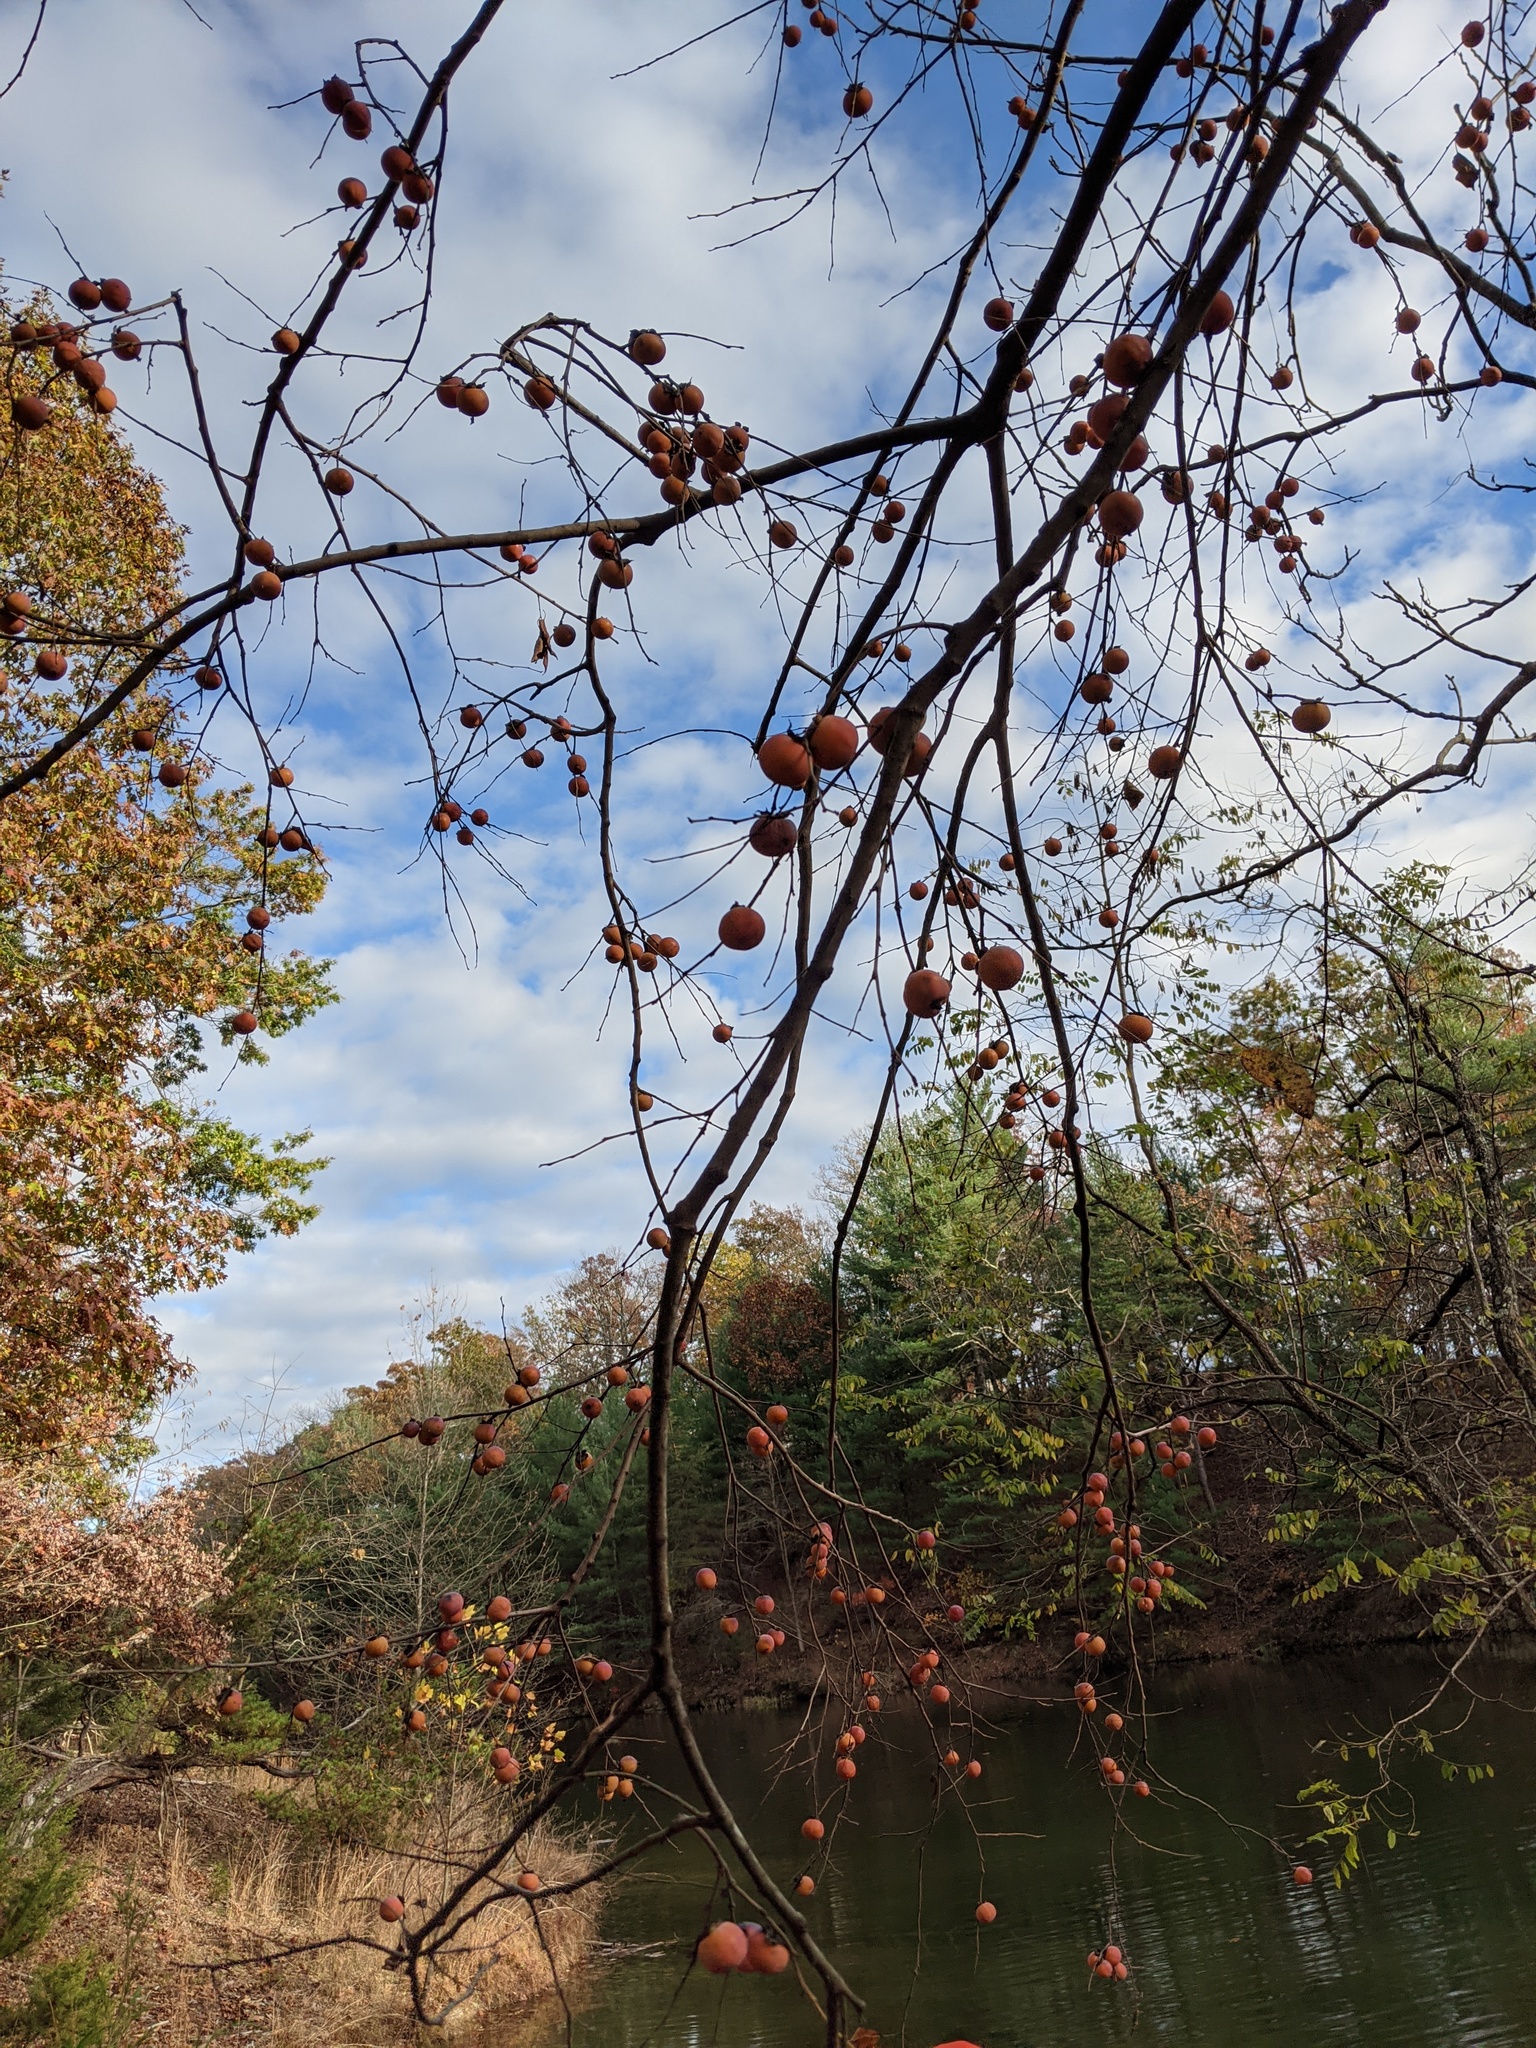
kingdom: Plantae
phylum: Tracheophyta
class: Magnoliopsida
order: Ericales
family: Ebenaceae
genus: Diospyros
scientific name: Diospyros virginiana
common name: Persimmon
